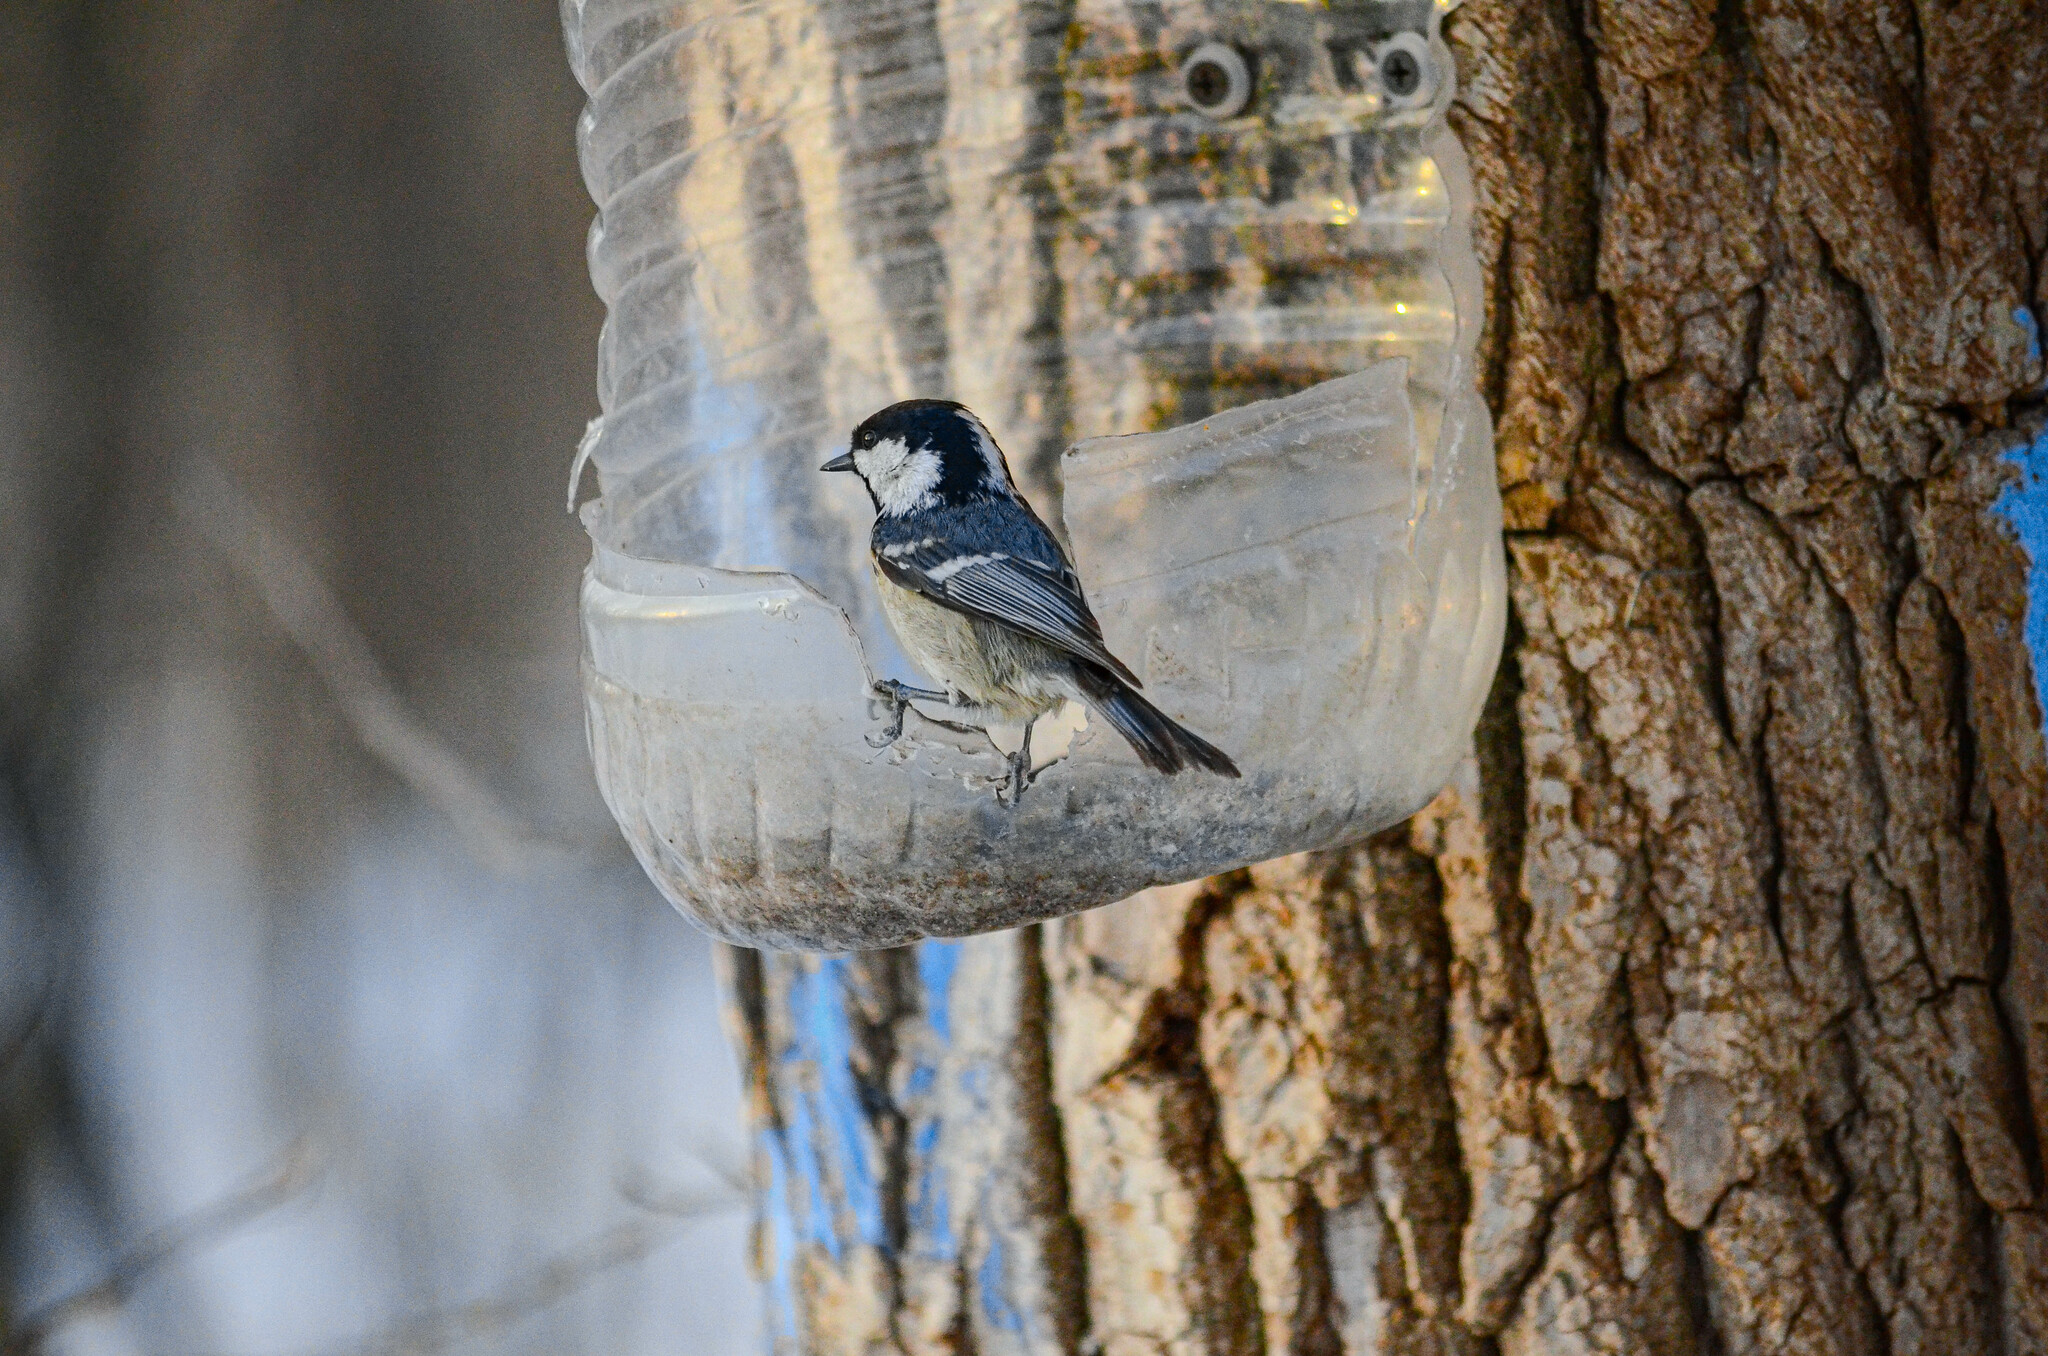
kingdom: Animalia
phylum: Chordata
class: Aves
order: Passeriformes
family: Paridae
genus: Periparus
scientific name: Periparus ater
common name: Coal tit
